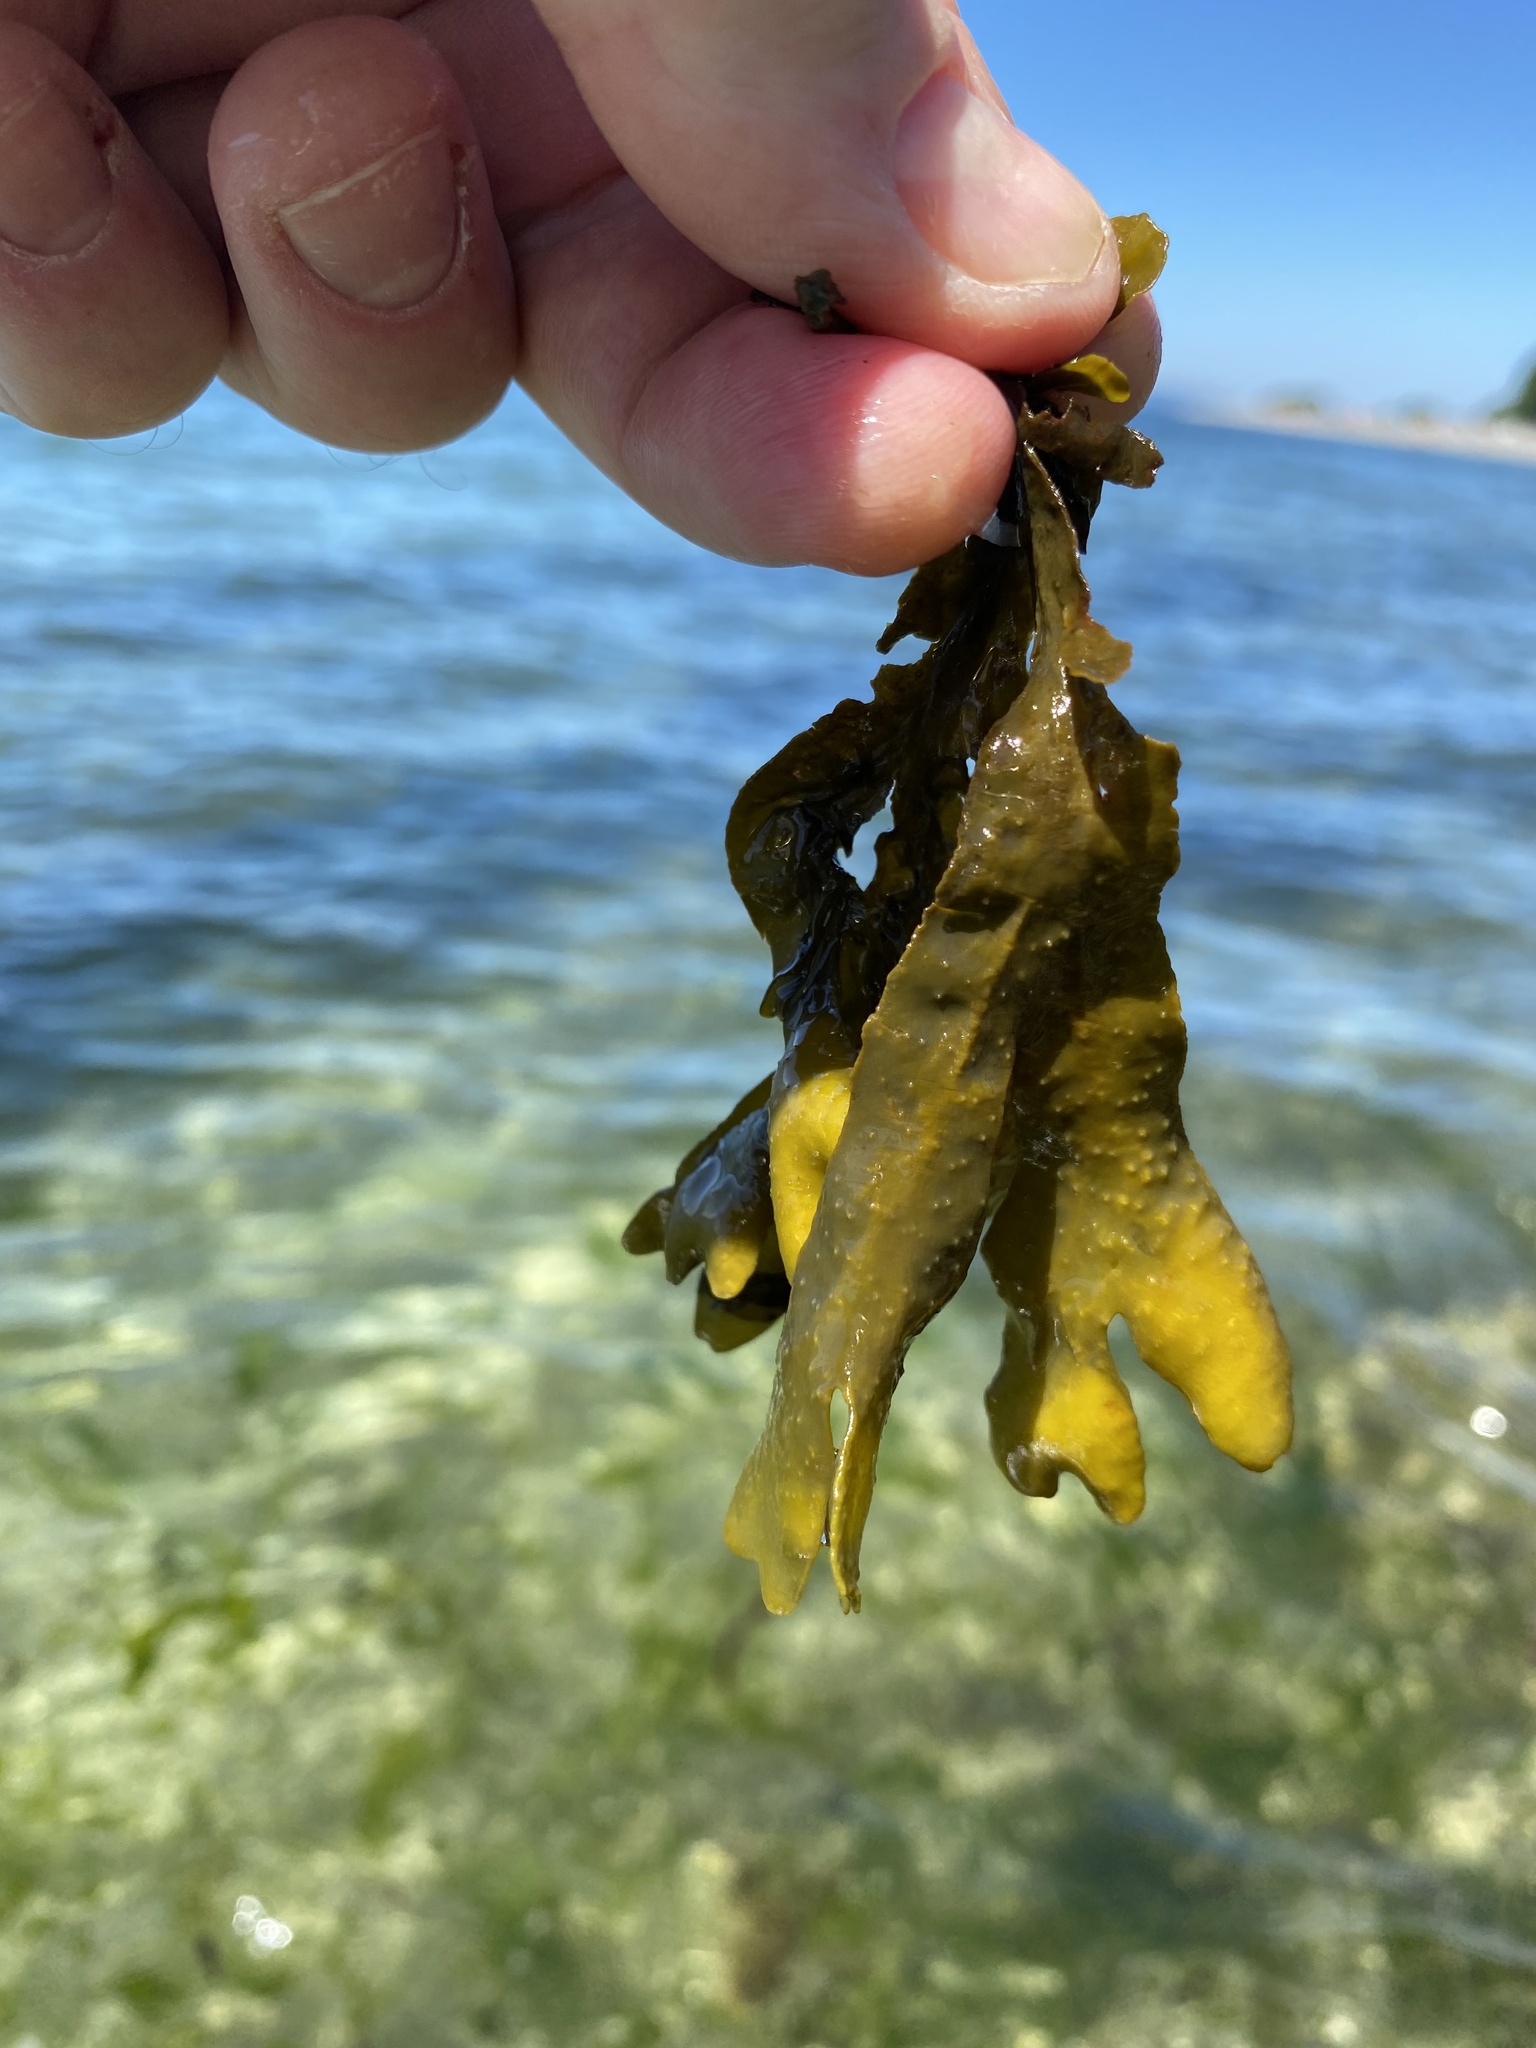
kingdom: Chromista
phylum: Ochrophyta
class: Phaeophyceae
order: Fucales
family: Fucaceae
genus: Fucus
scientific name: Fucus distichus
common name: Rockweed
